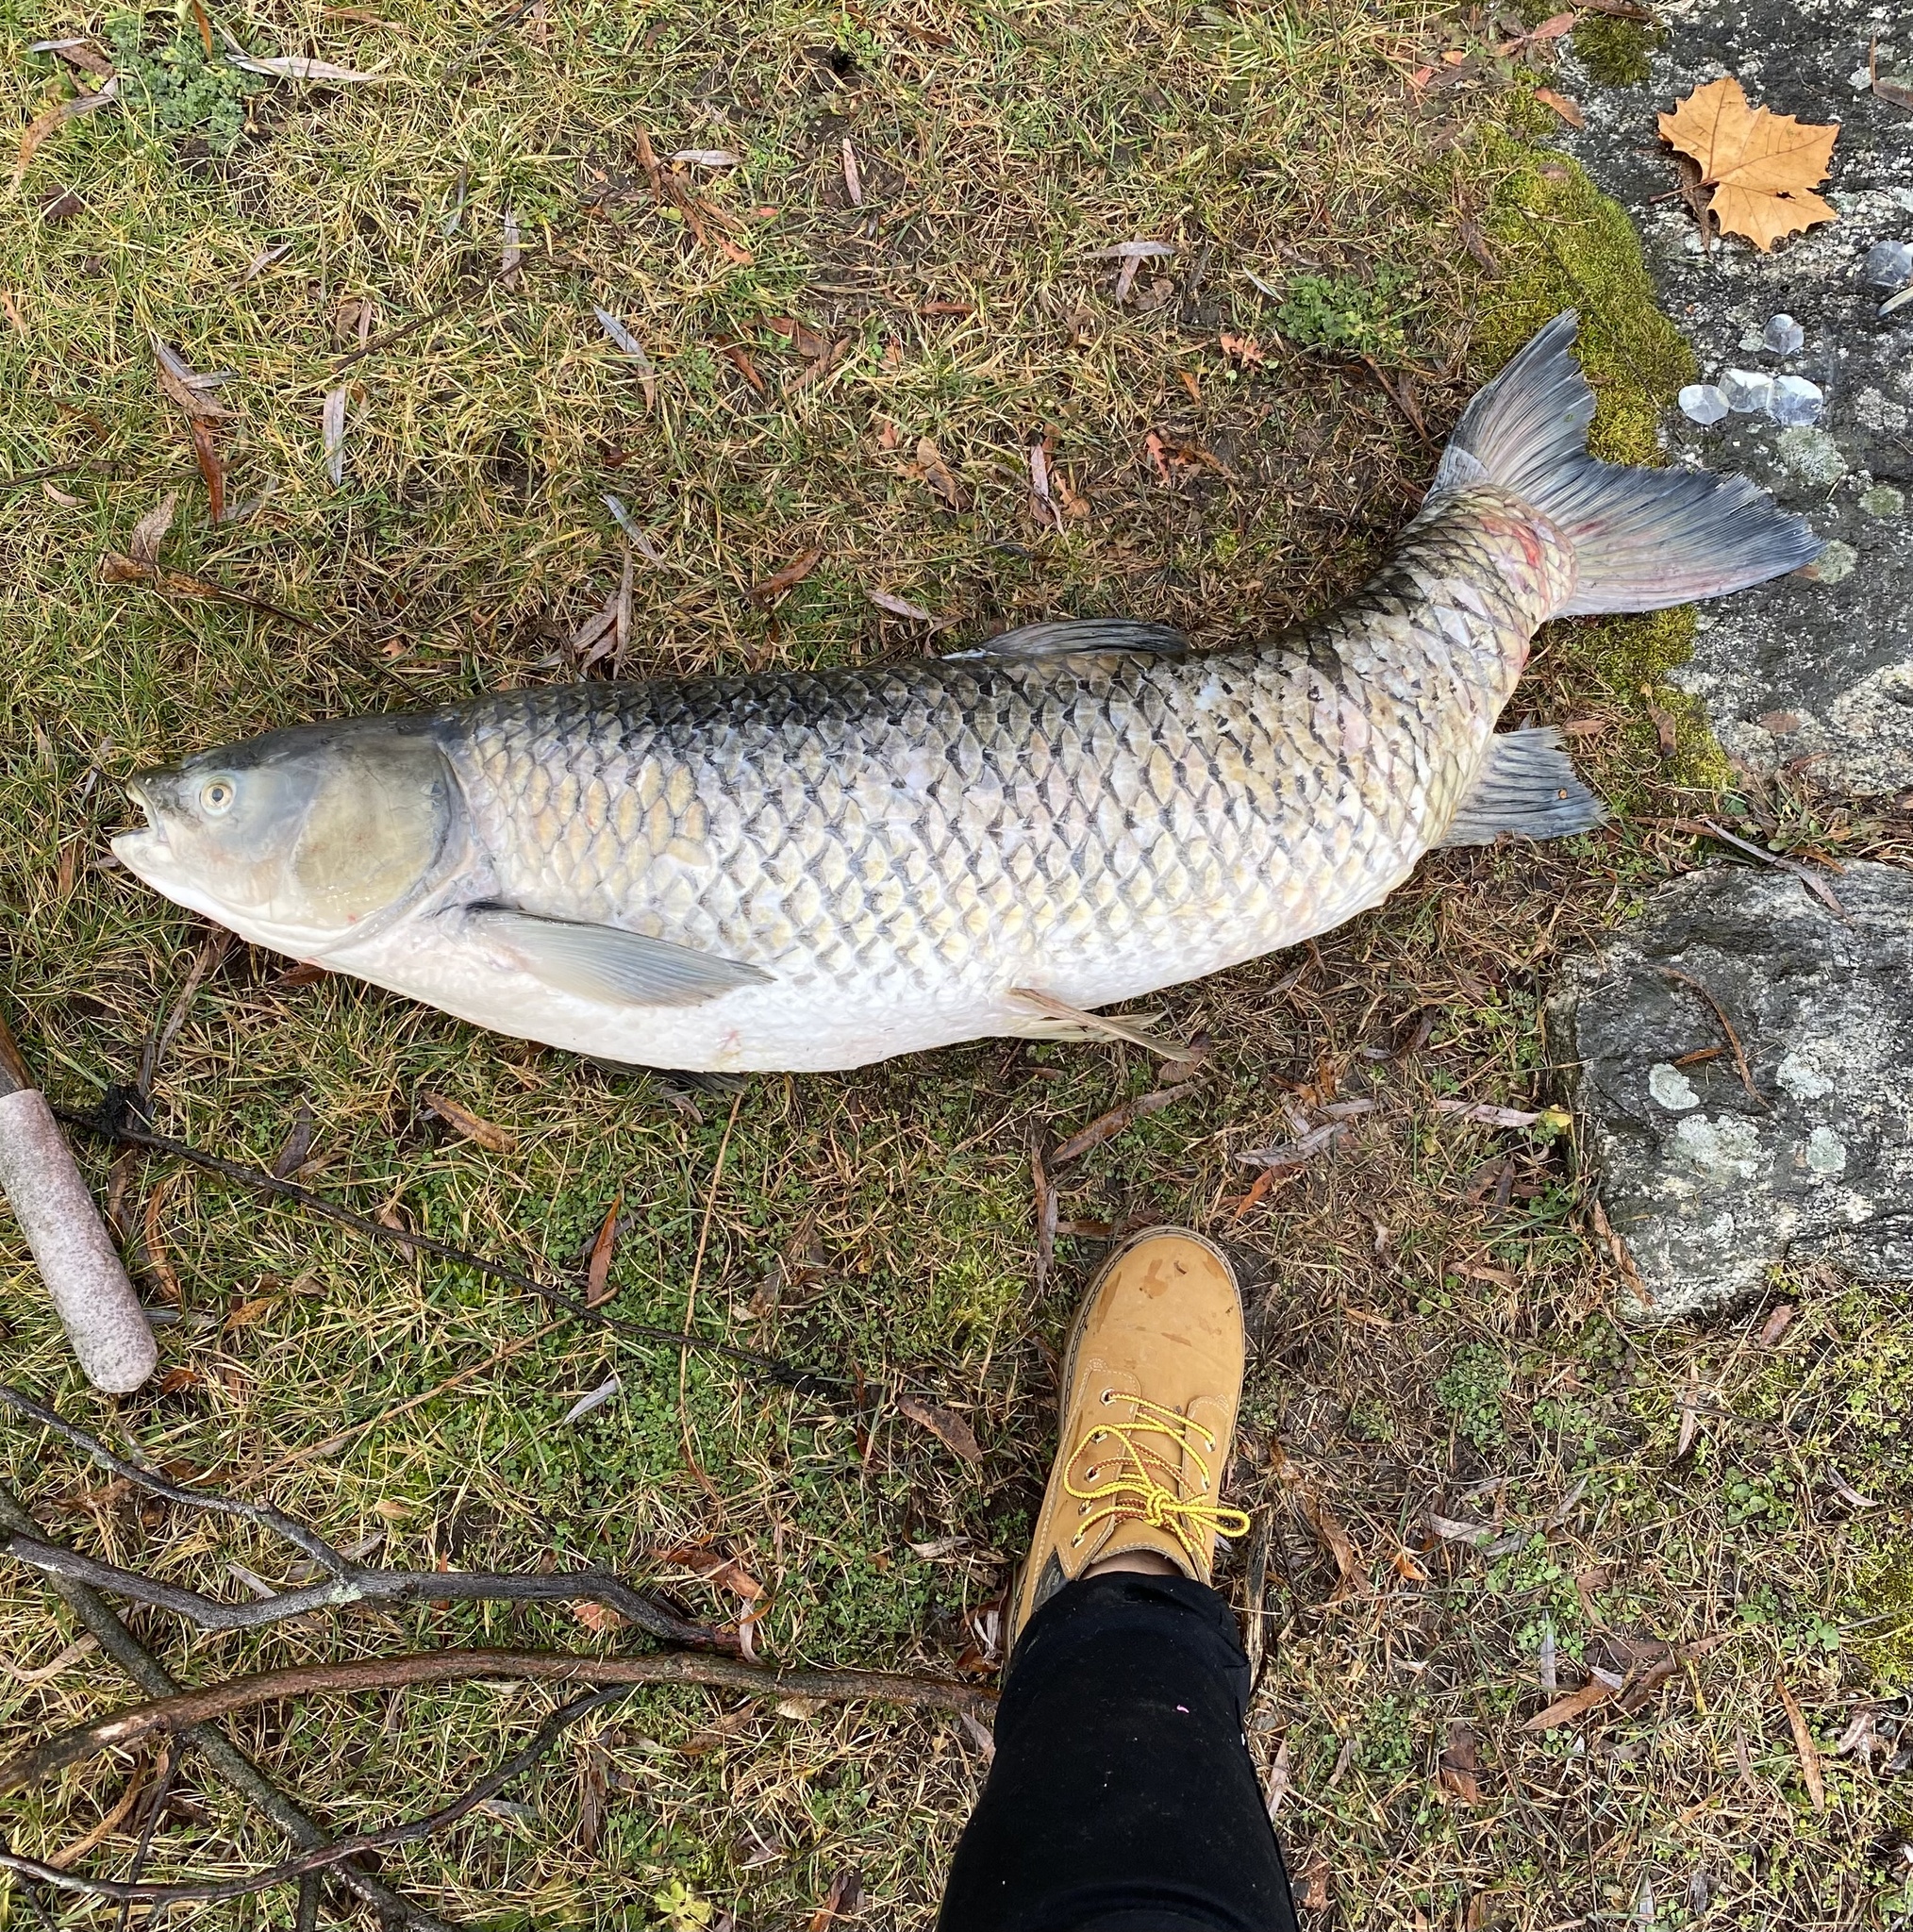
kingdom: Animalia
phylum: Chordata
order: Cypriniformes
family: Cyprinidae
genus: Ctenopharyngodon
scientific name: Ctenopharyngodon idella
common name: Grass carp
